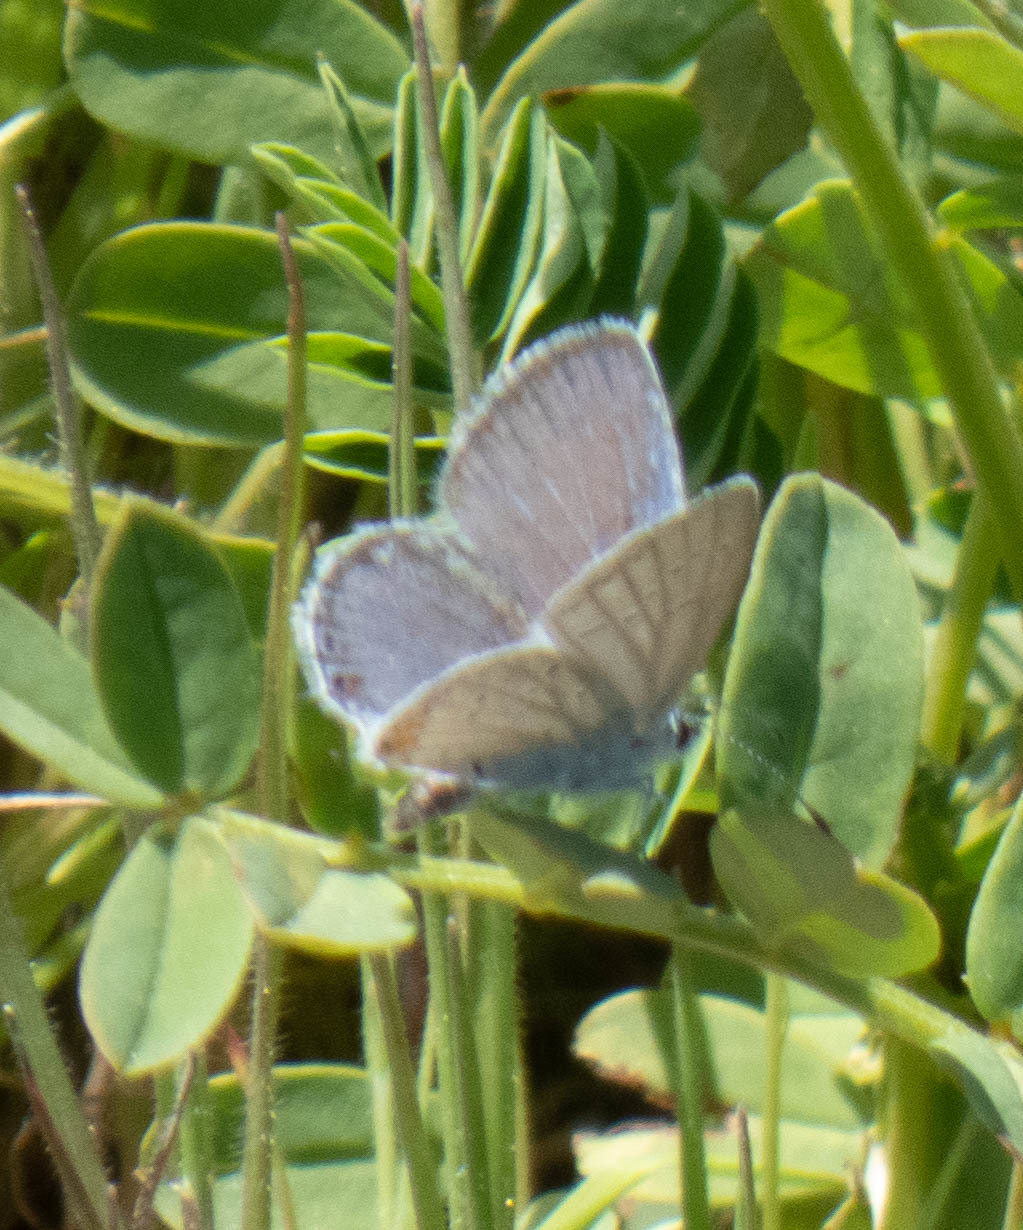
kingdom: Animalia
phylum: Arthropoda
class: Insecta
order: Lepidoptera
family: Lycaenidae
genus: Elkalyce
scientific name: Elkalyce comyntas
